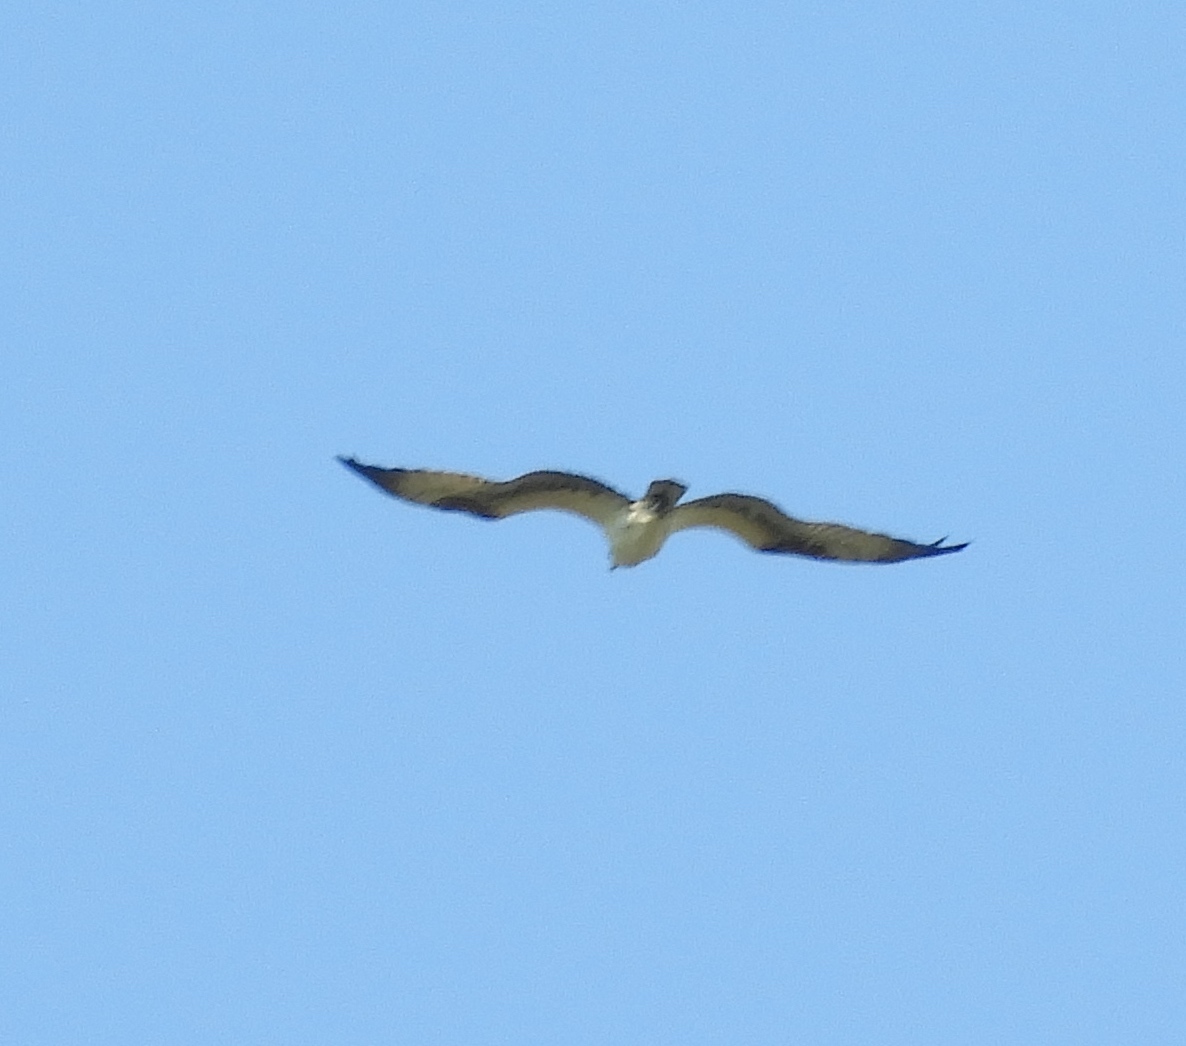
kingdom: Animalia
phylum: Chordata
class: Aves
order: Accipitriformes
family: Pandionidae
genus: Pandion
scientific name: Pandion haliaetus
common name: Osprey
